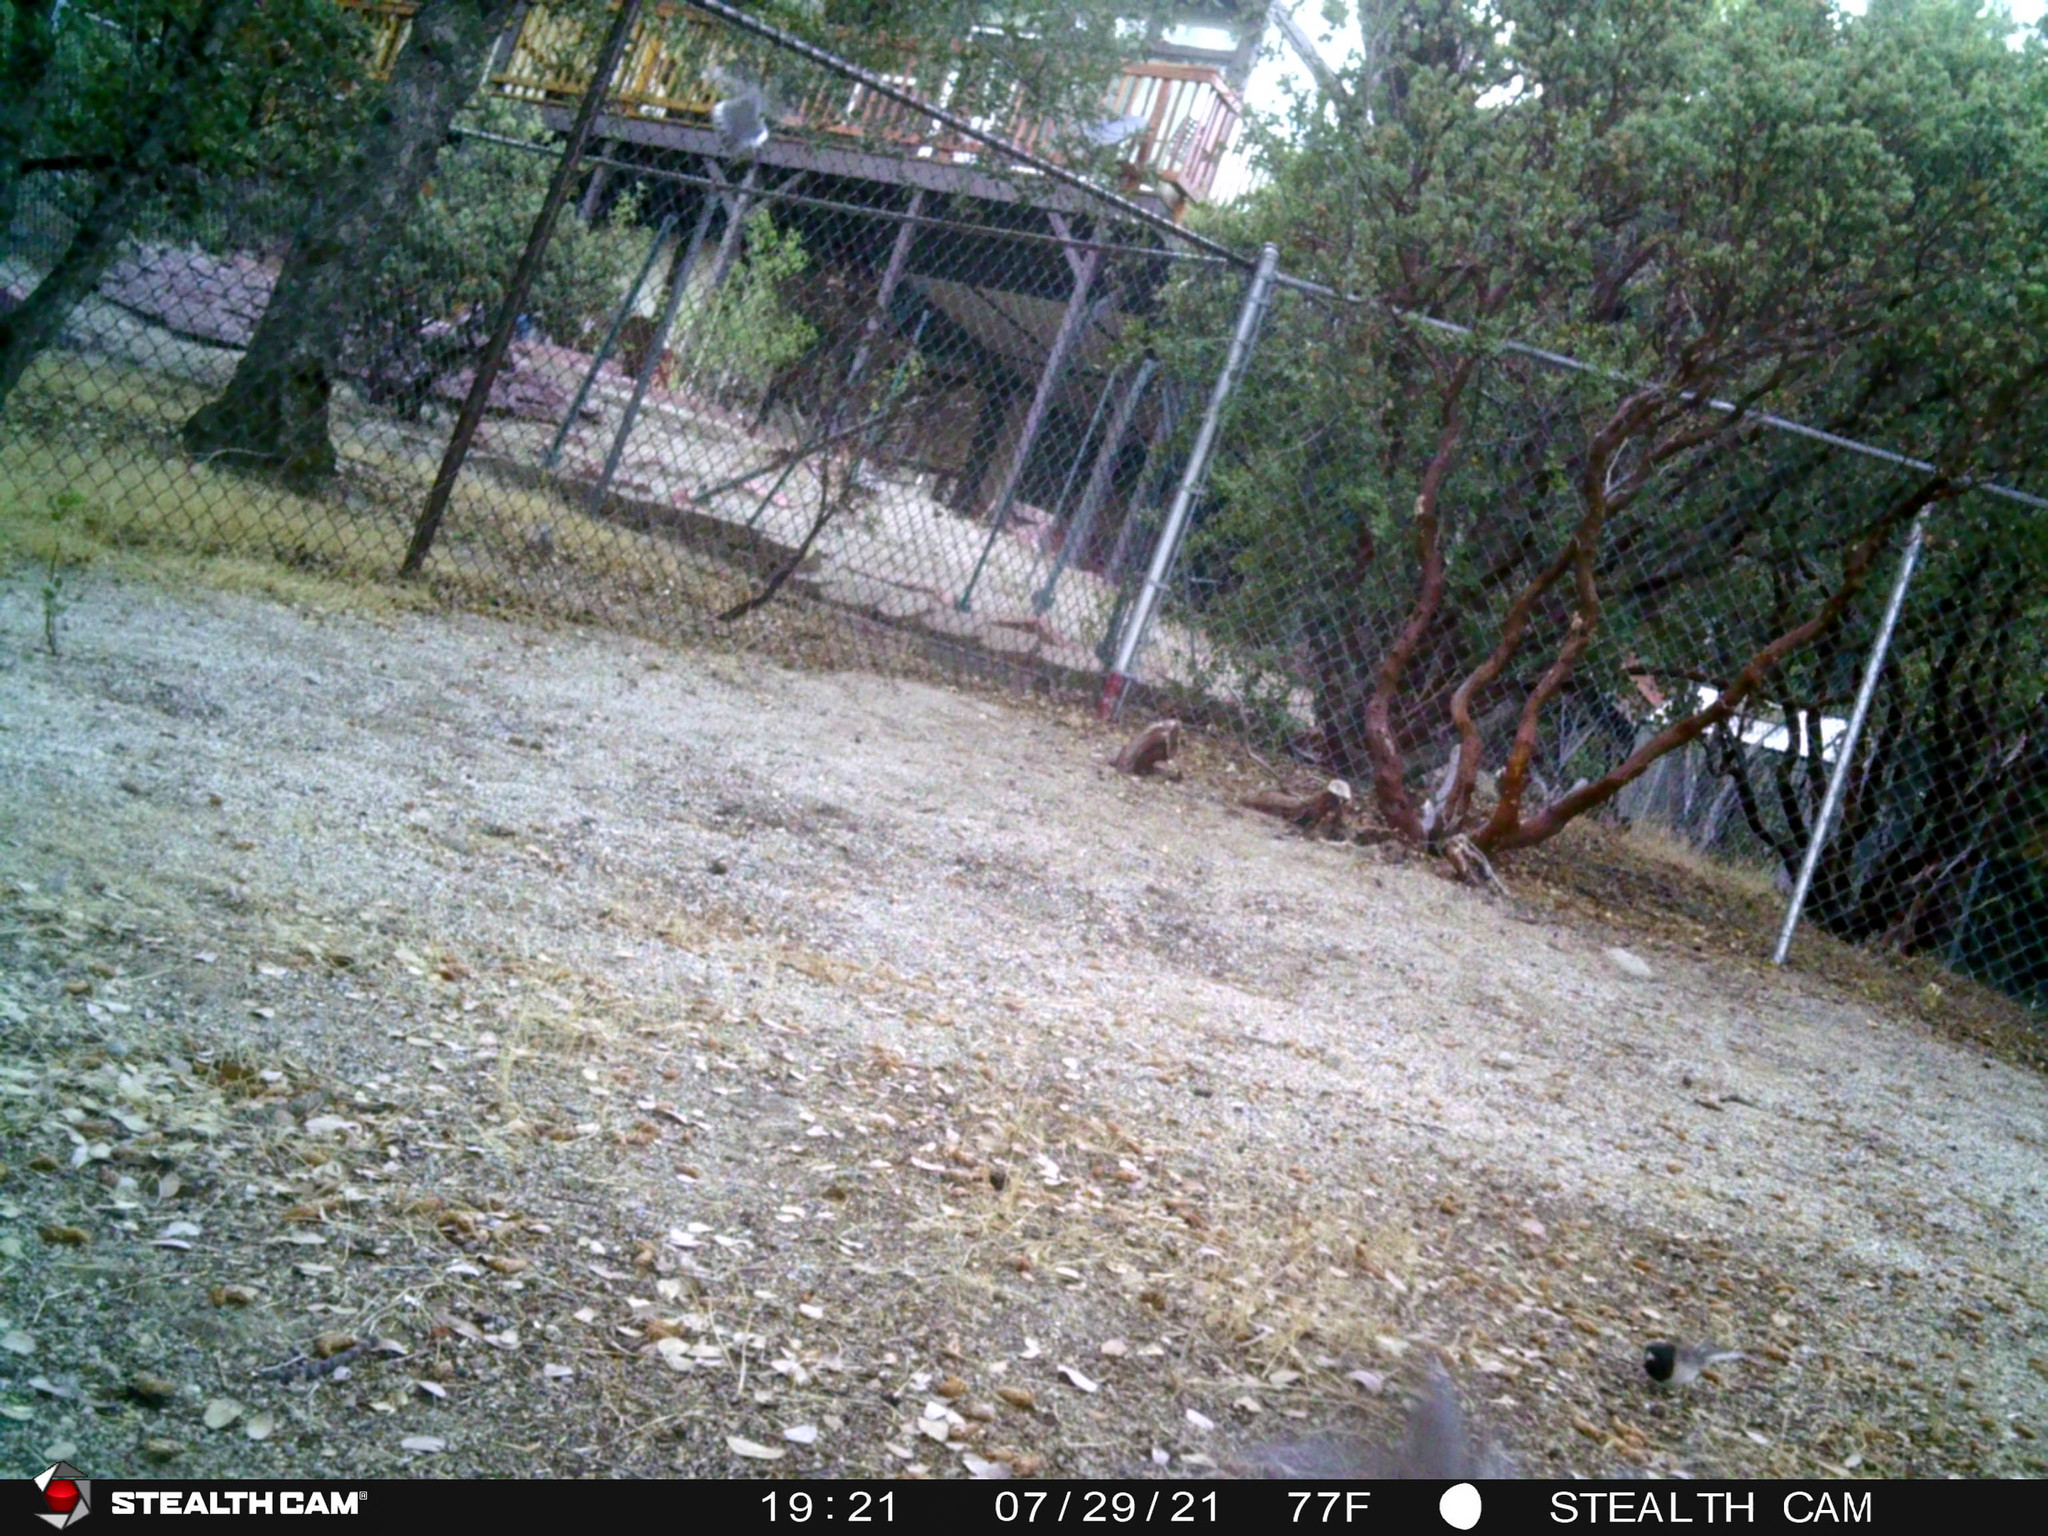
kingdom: Animalia
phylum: Chordata
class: Aves
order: Passeriformes
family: Passerellidae
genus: Junco
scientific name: Junco hyemalis
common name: Dark-eyed junco
